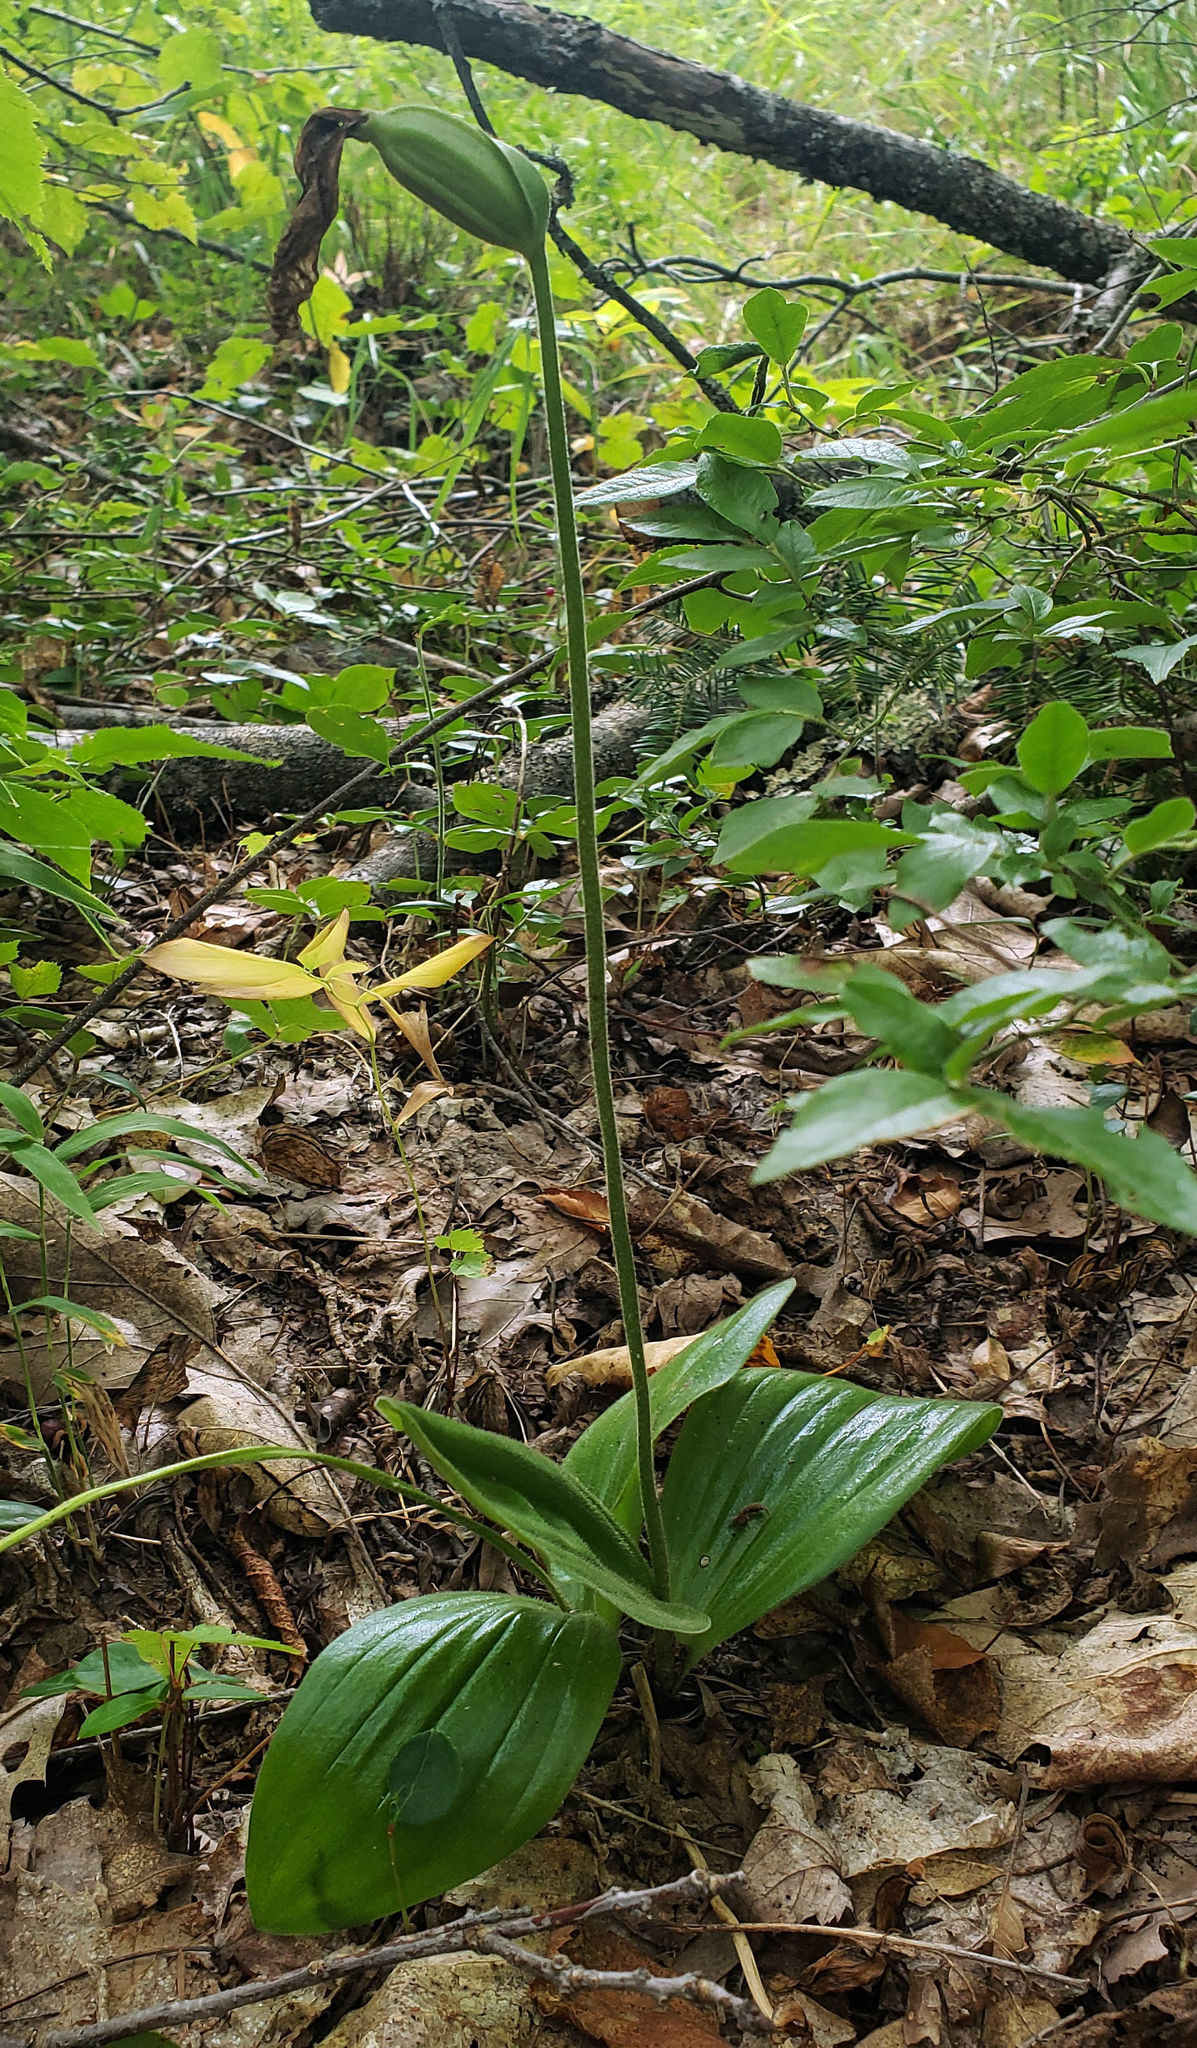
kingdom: Plantae
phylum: Tracheophyta
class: Liliopsida
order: Asparagales
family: Orchidaceae
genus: Cypripedium
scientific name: Cypripedium acaule
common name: Pink lady's-slipper
